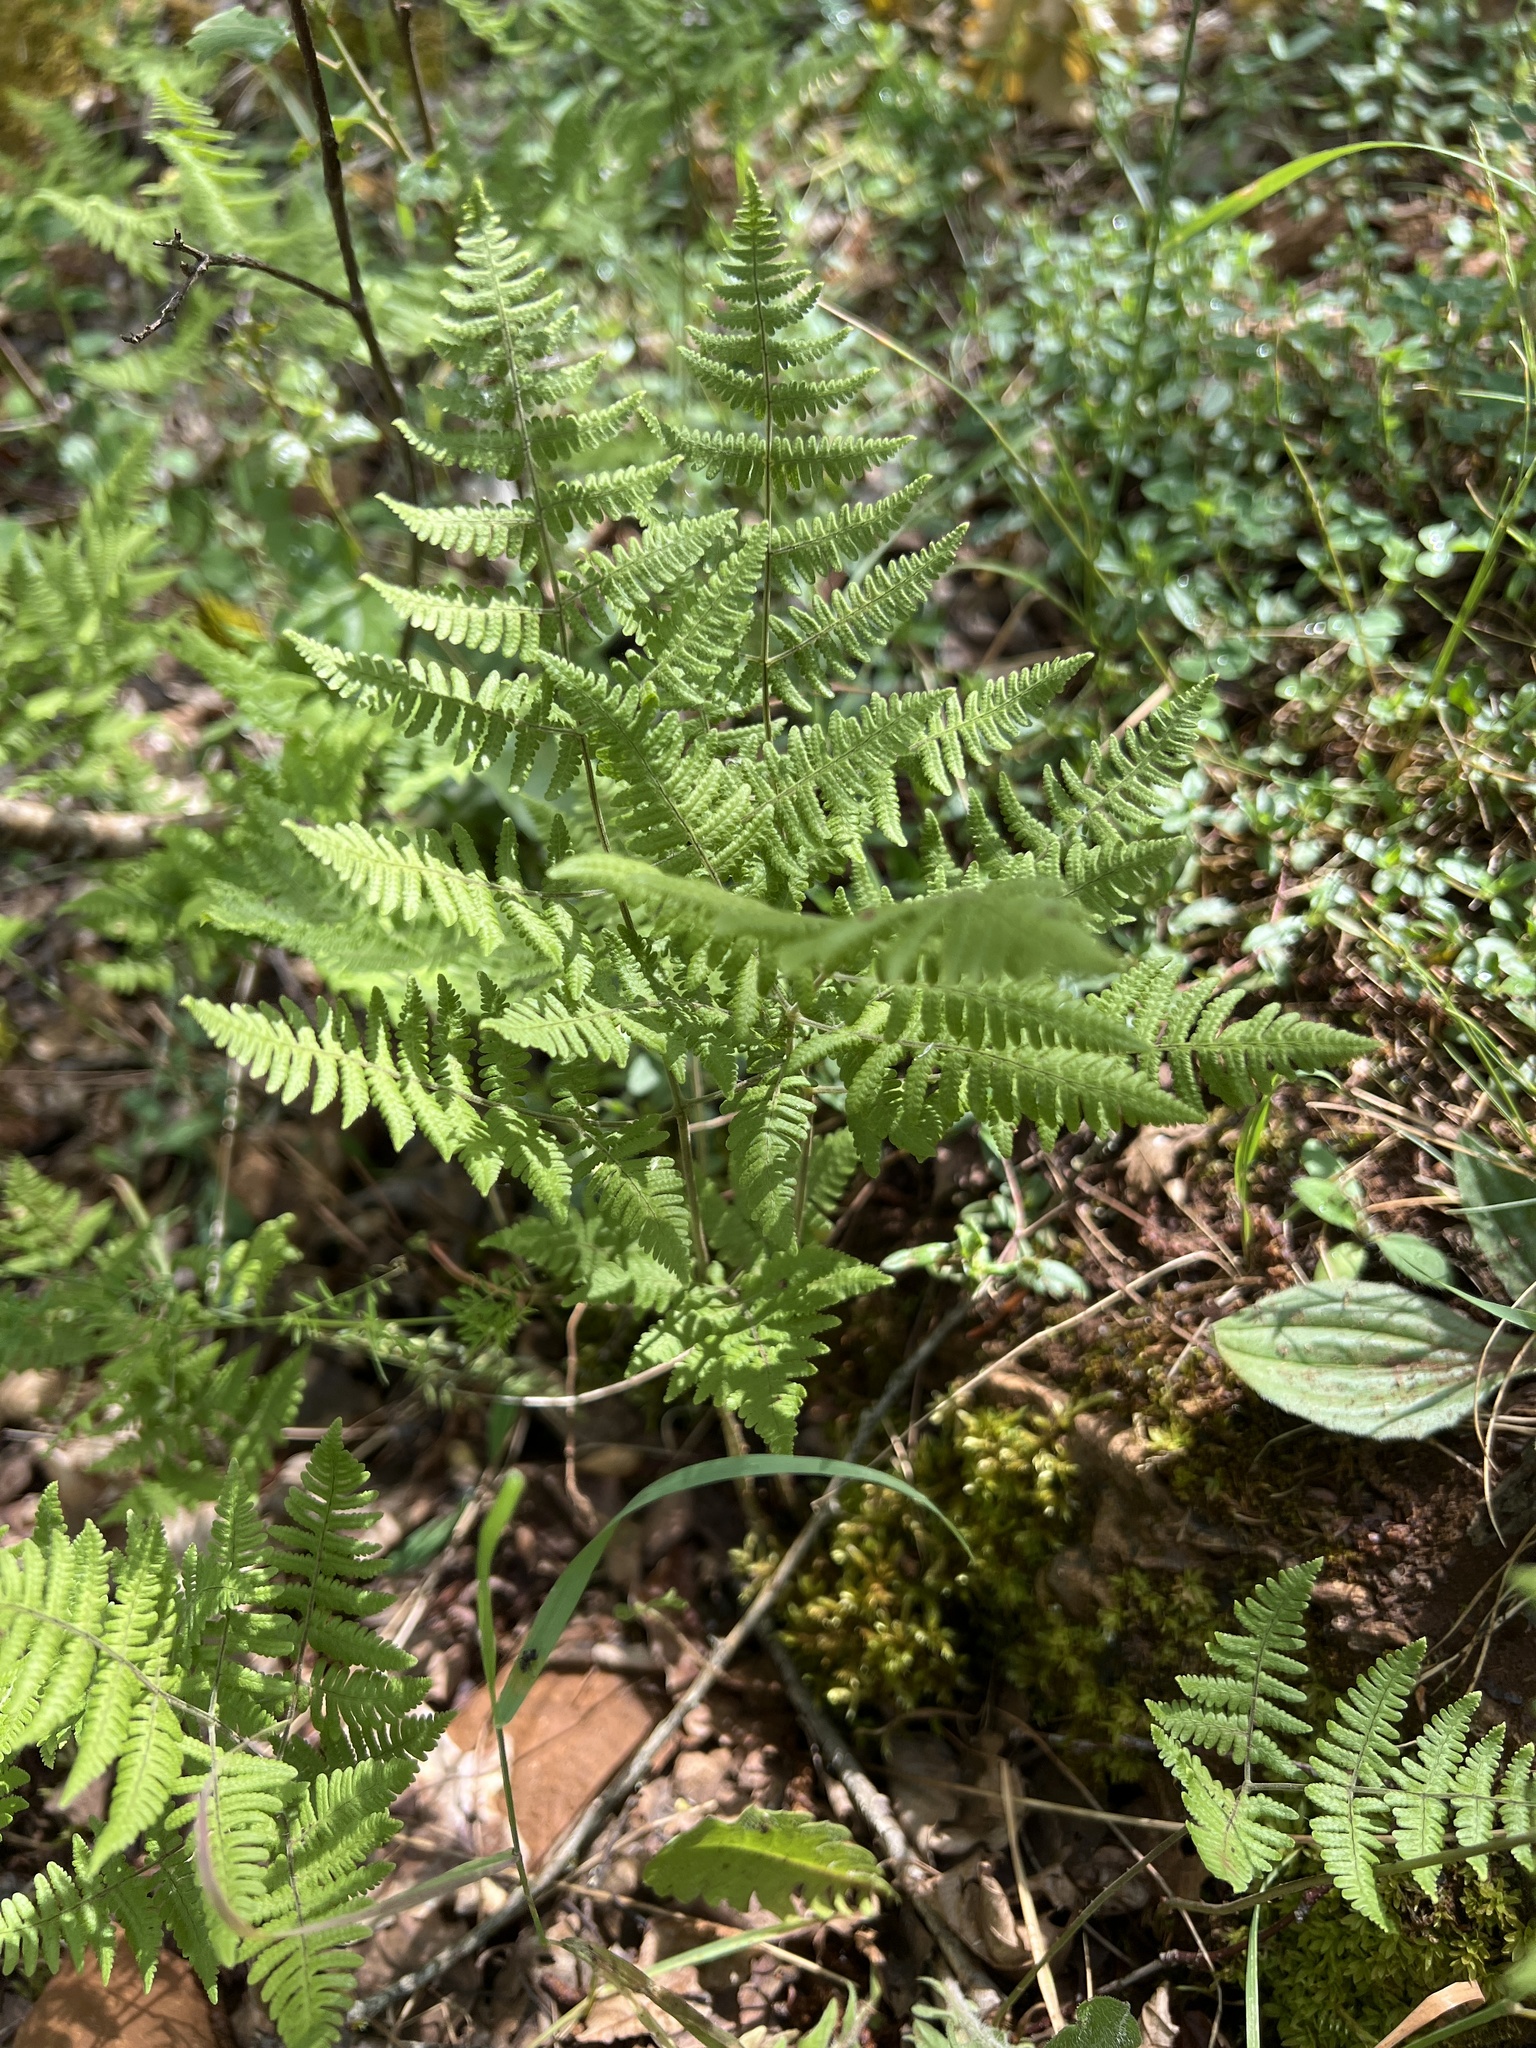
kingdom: Plantae
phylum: Tracheophyta
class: Polypodiopsida
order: Polypodiales
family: Cystopteridaceae
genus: Gymnocarpium
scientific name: Gymnocarpium robertianum
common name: Limestone fern
